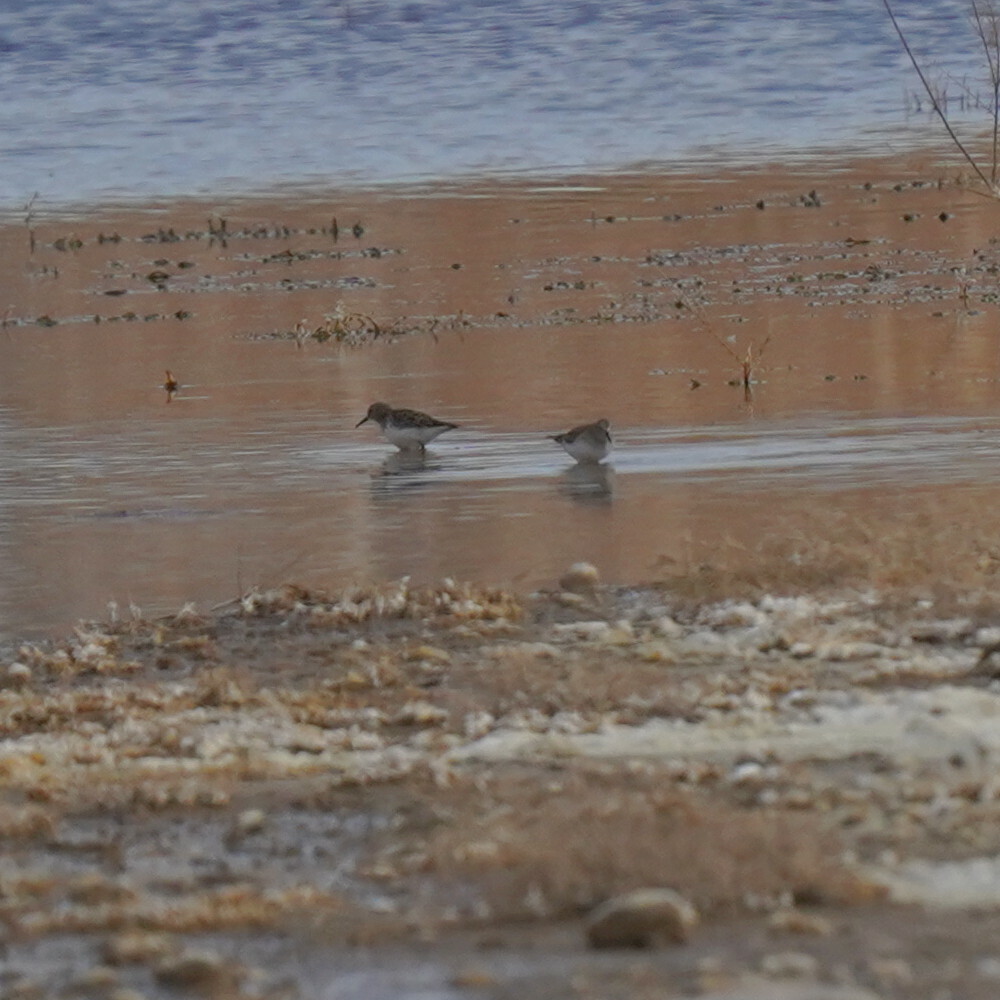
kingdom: Animalia
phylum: Chordata
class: Aves
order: Charadriiformes
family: Scolopacidae
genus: Calidris
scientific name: Calidris minutilla
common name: Least sandpiper
